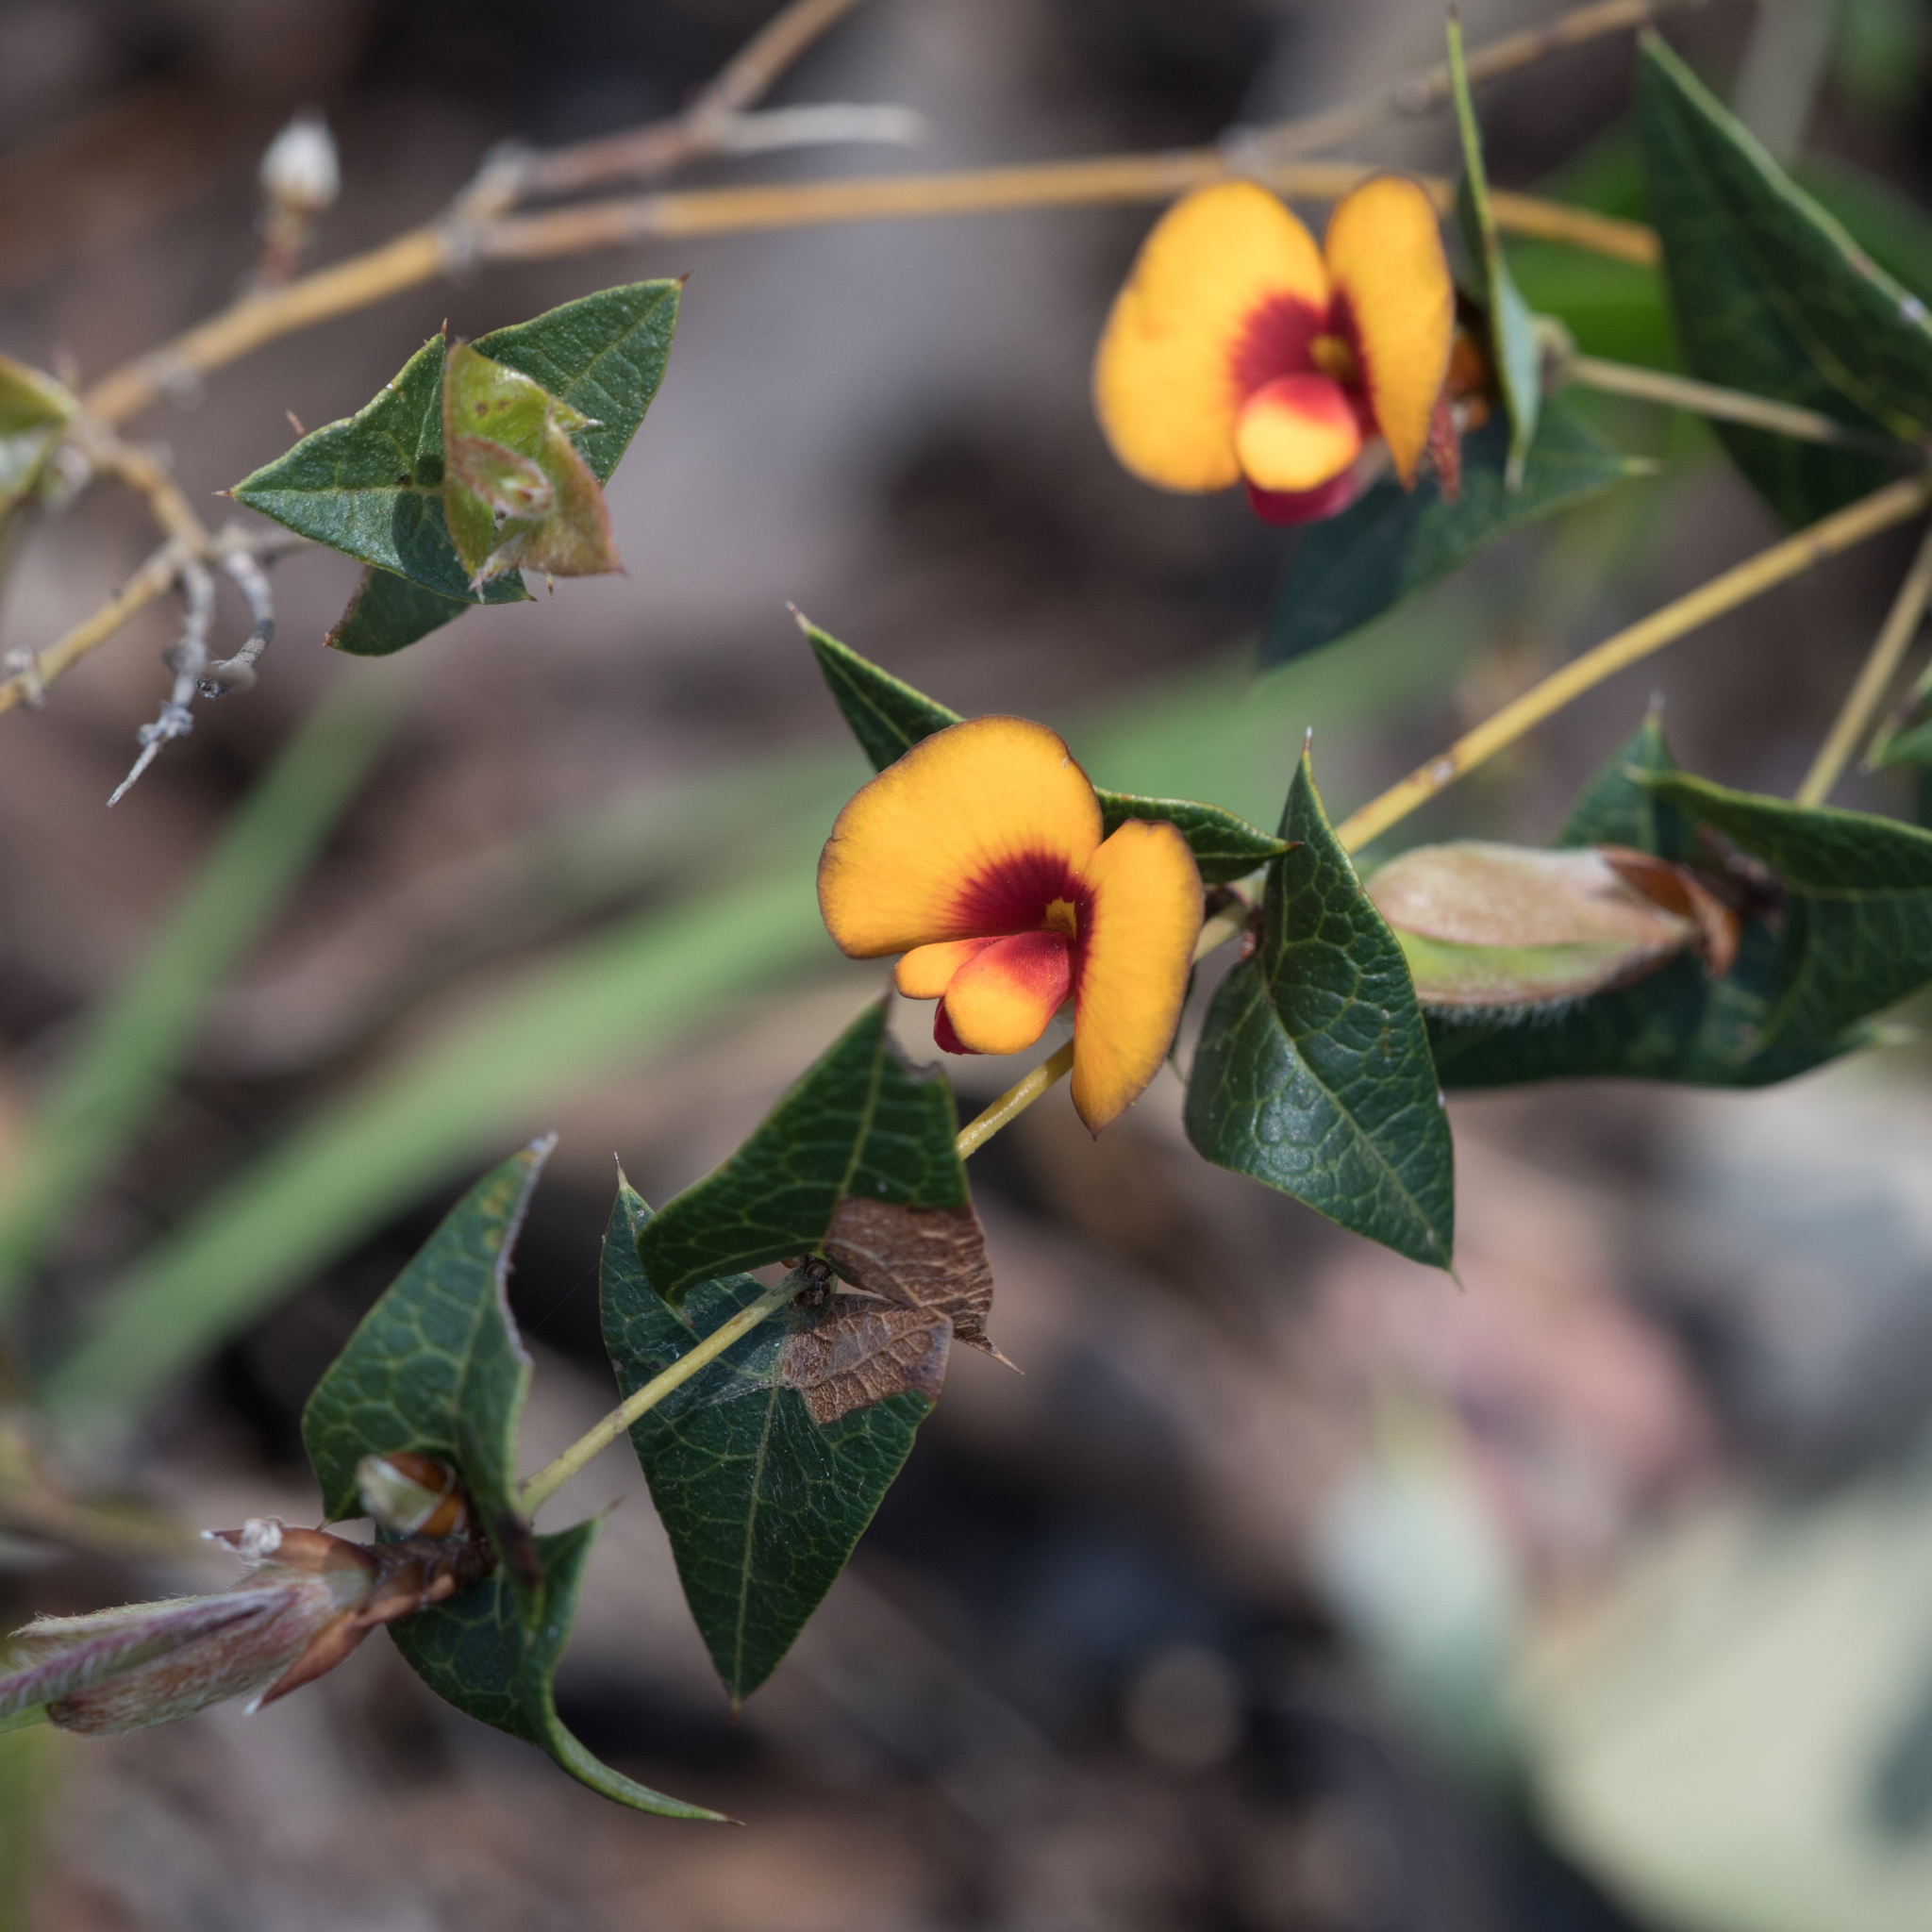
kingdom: Plantae
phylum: Tracheophyta
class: Magnoliopsida
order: Fabales
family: Fabaceae
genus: Platylobium
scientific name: Platylobium obtusangulum
